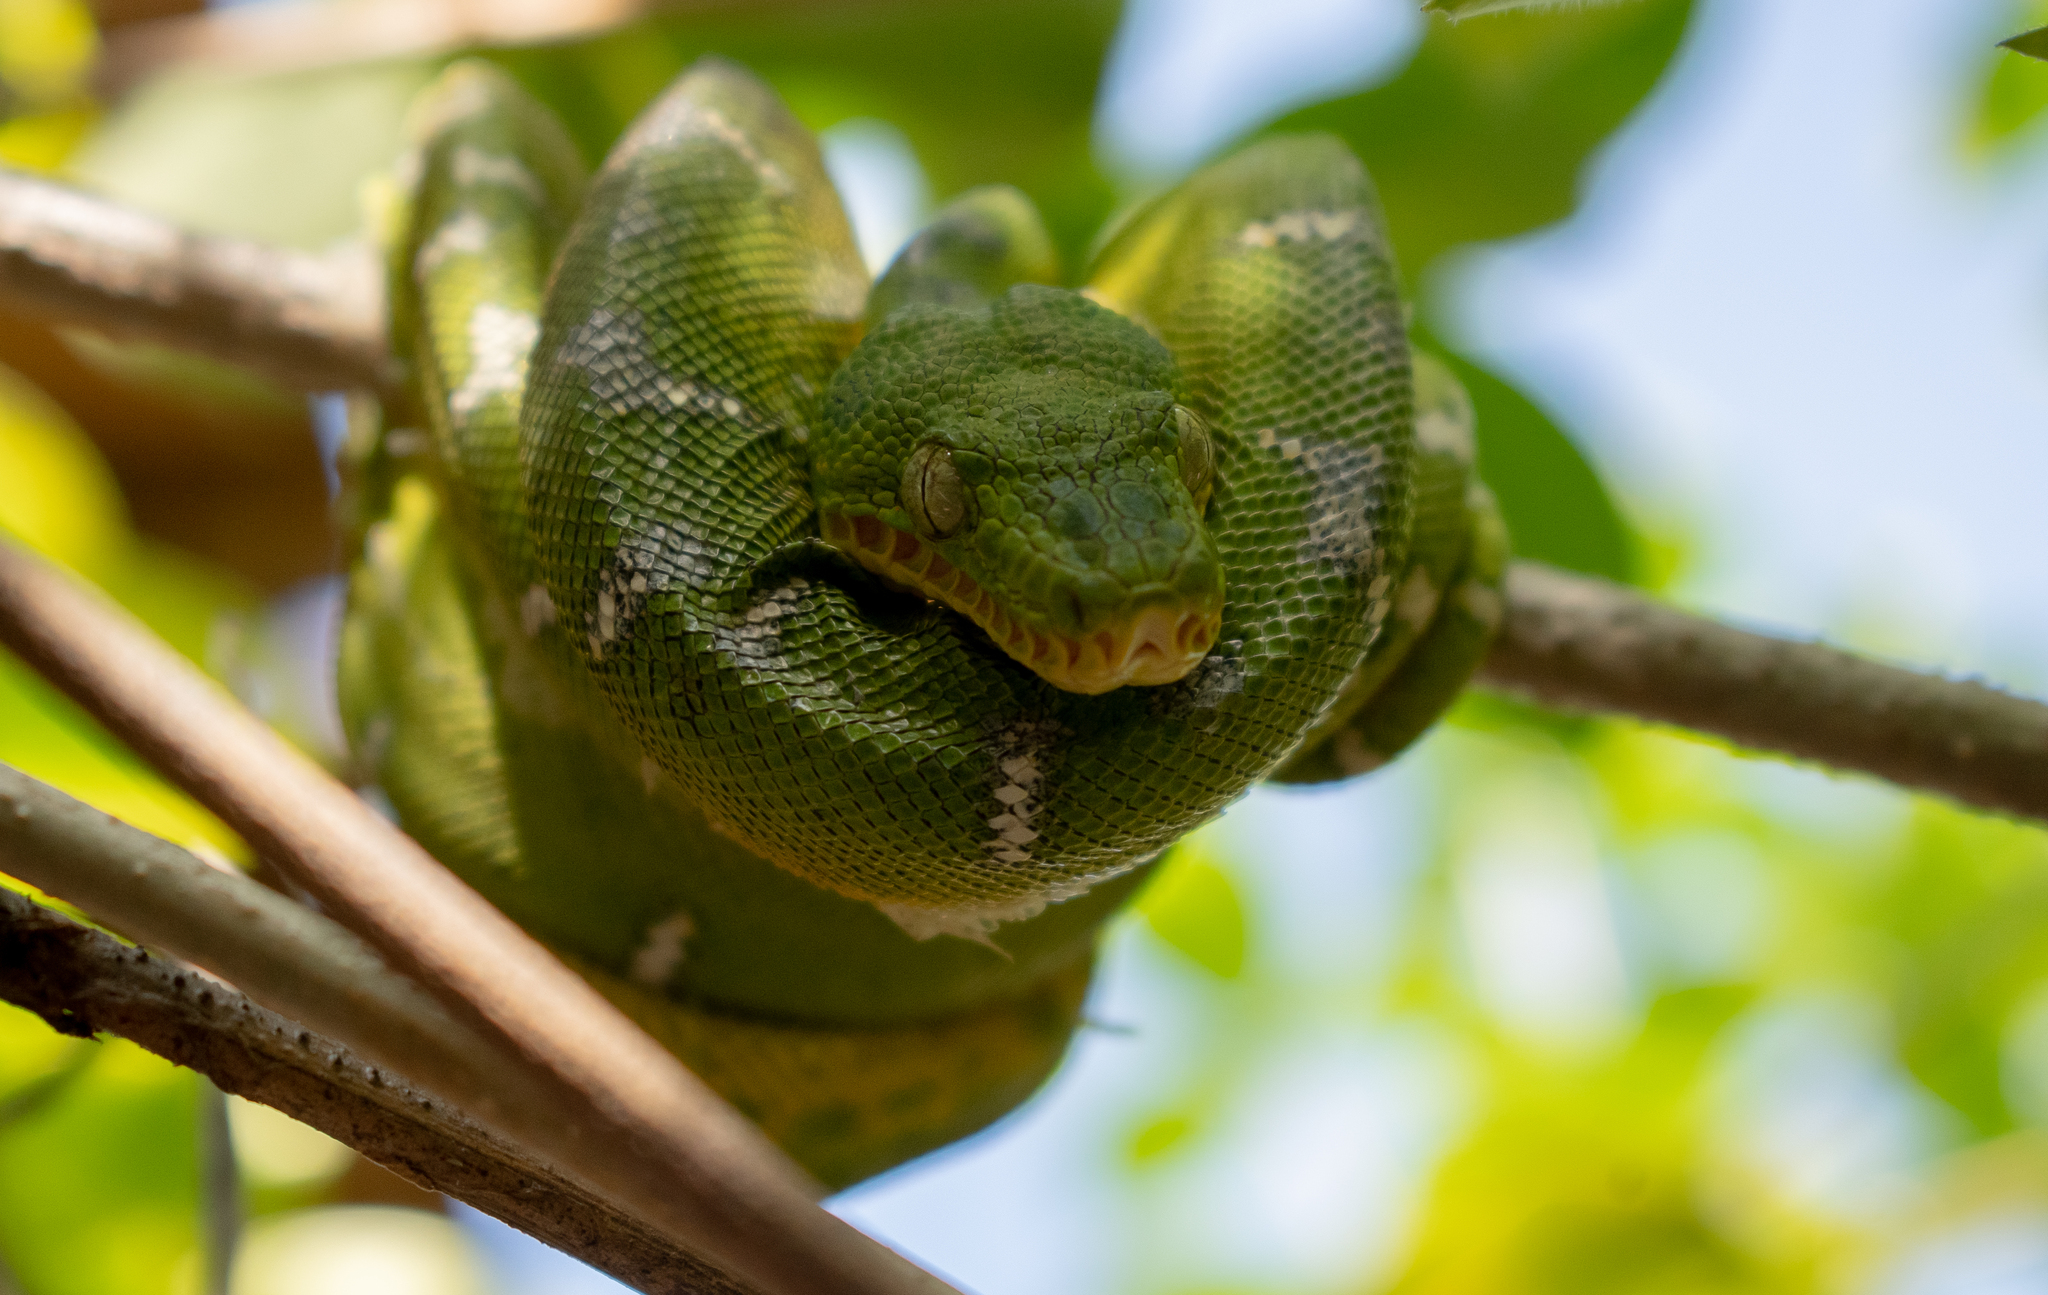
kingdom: Animalia
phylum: Chordata
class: Squamata
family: Boidae
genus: Corallus
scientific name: Corallus caninus
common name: Emerald tree boa
